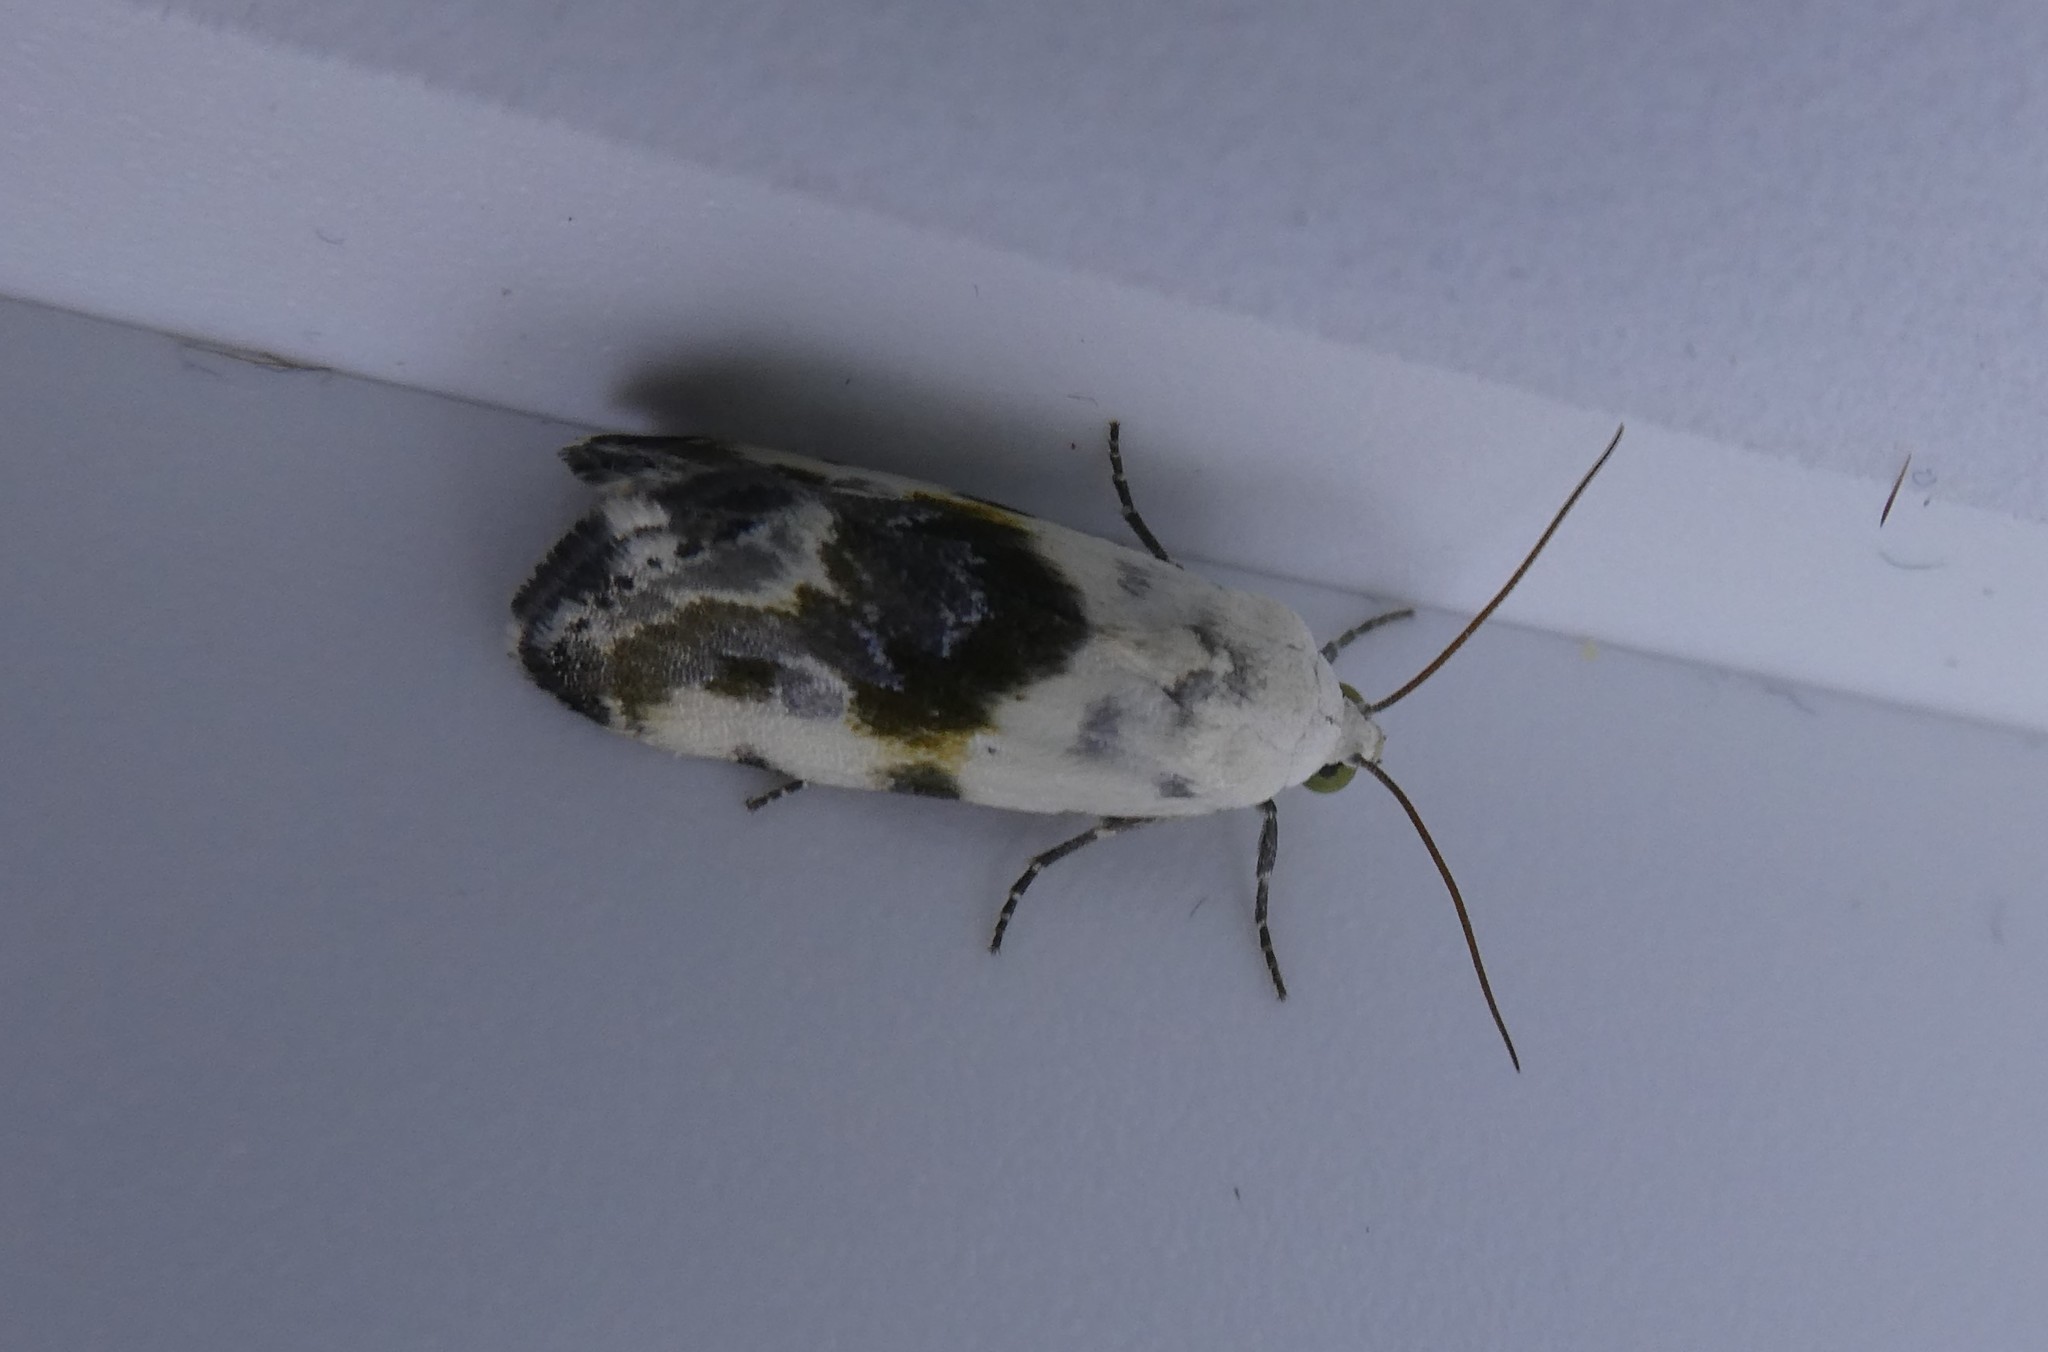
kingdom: Animalia
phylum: Arthropoda
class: Insecta
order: Lepidoptera
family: Noctuidae
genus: Acontia
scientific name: Acontia candefacta
